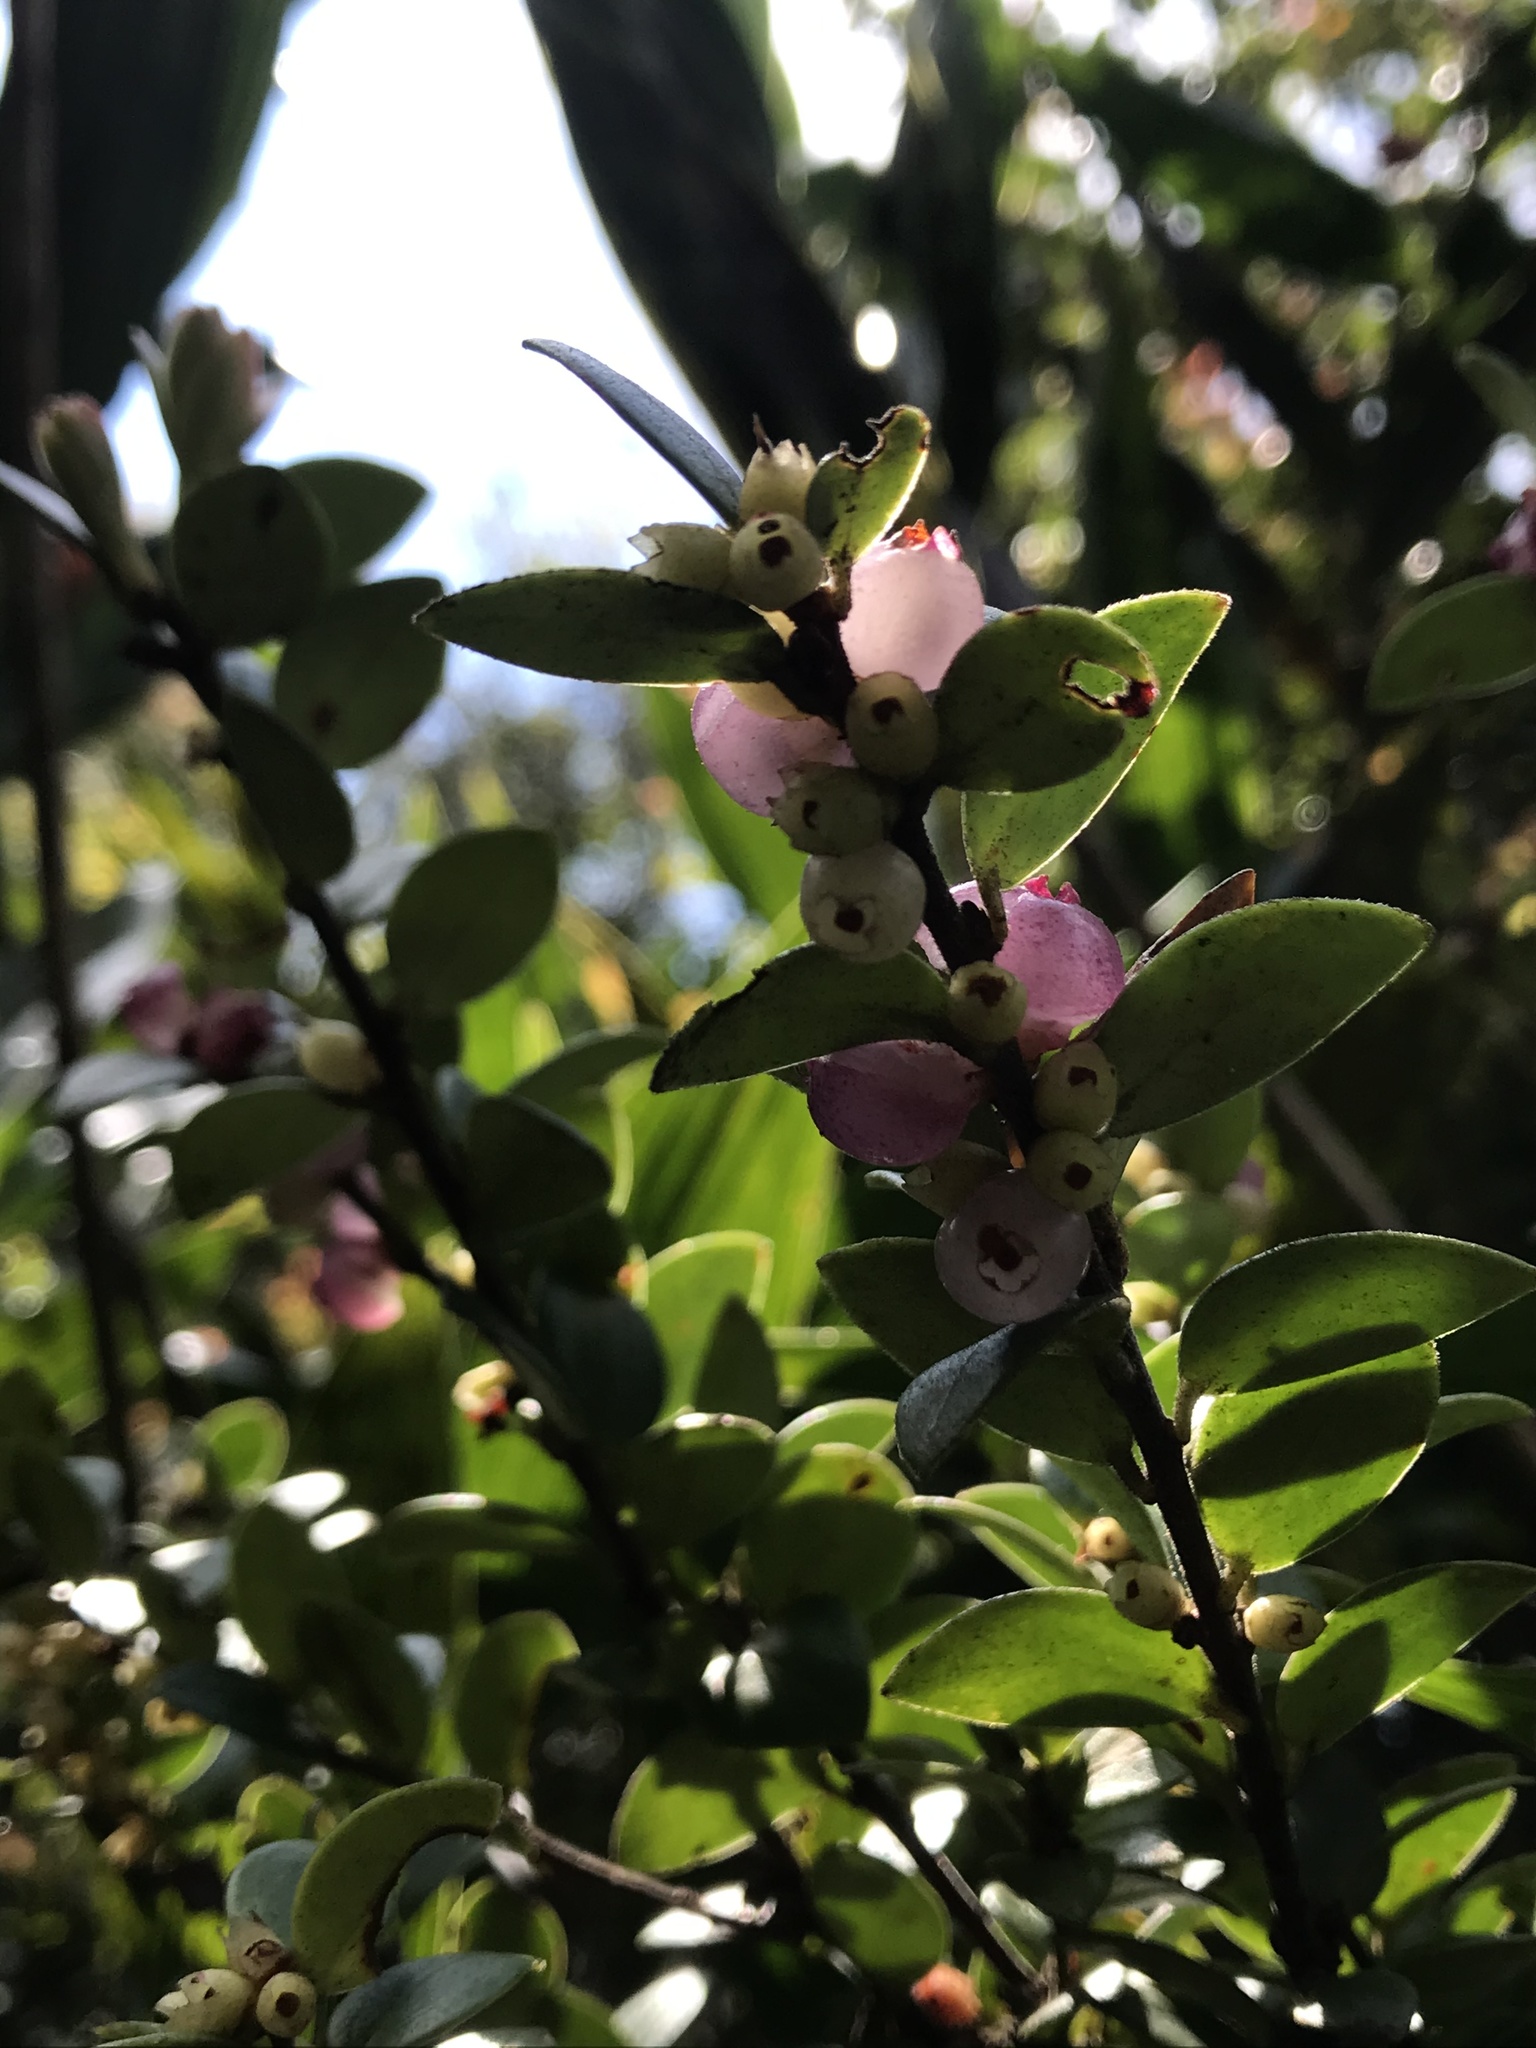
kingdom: Plantae
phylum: Tracheophyta
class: Magnoliopsida
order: Ericales
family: Ericaceae
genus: Disterigma
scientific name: Disterigma alaternoides
